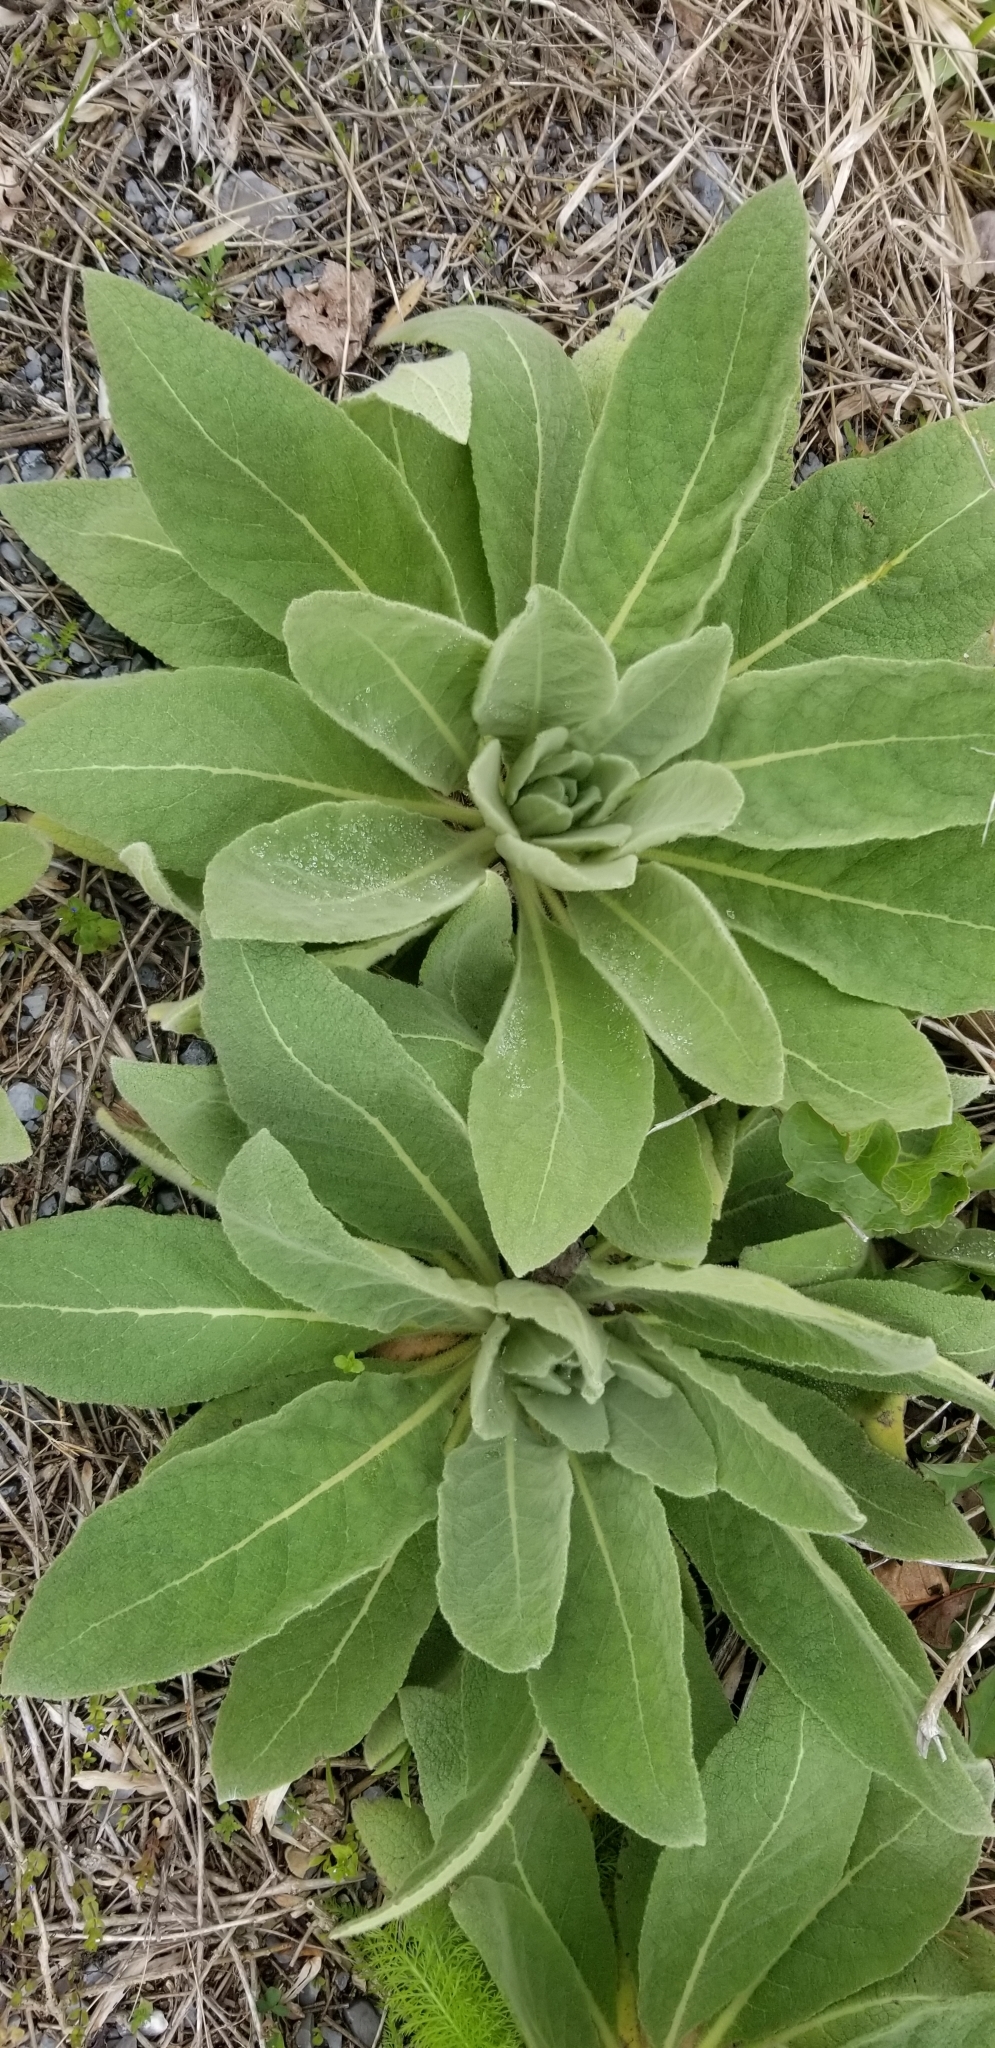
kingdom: Plantae
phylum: Tracheophyta
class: Magnoliopsida
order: Lamiales
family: Scrophulariaceae
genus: Verbascum
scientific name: Verbascum thapsus
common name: Common mullein
